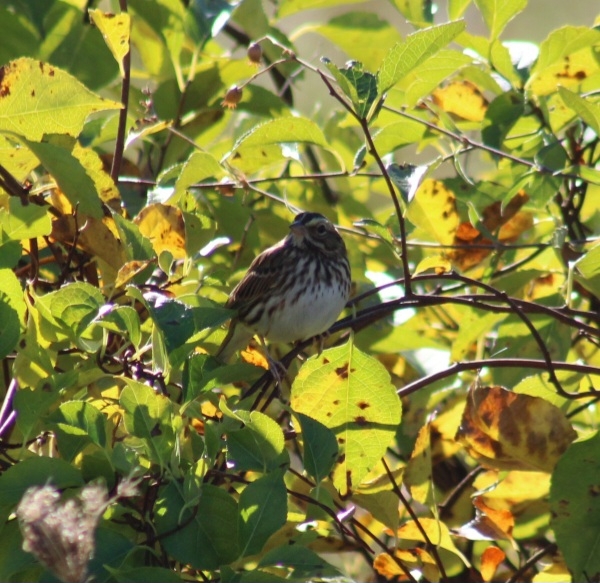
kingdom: Animalia
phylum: Chordata
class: Aves
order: Passeriformes
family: Passerellidae
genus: Passerculus
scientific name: Passerculus sandwichensis
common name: Savannah sparrow
